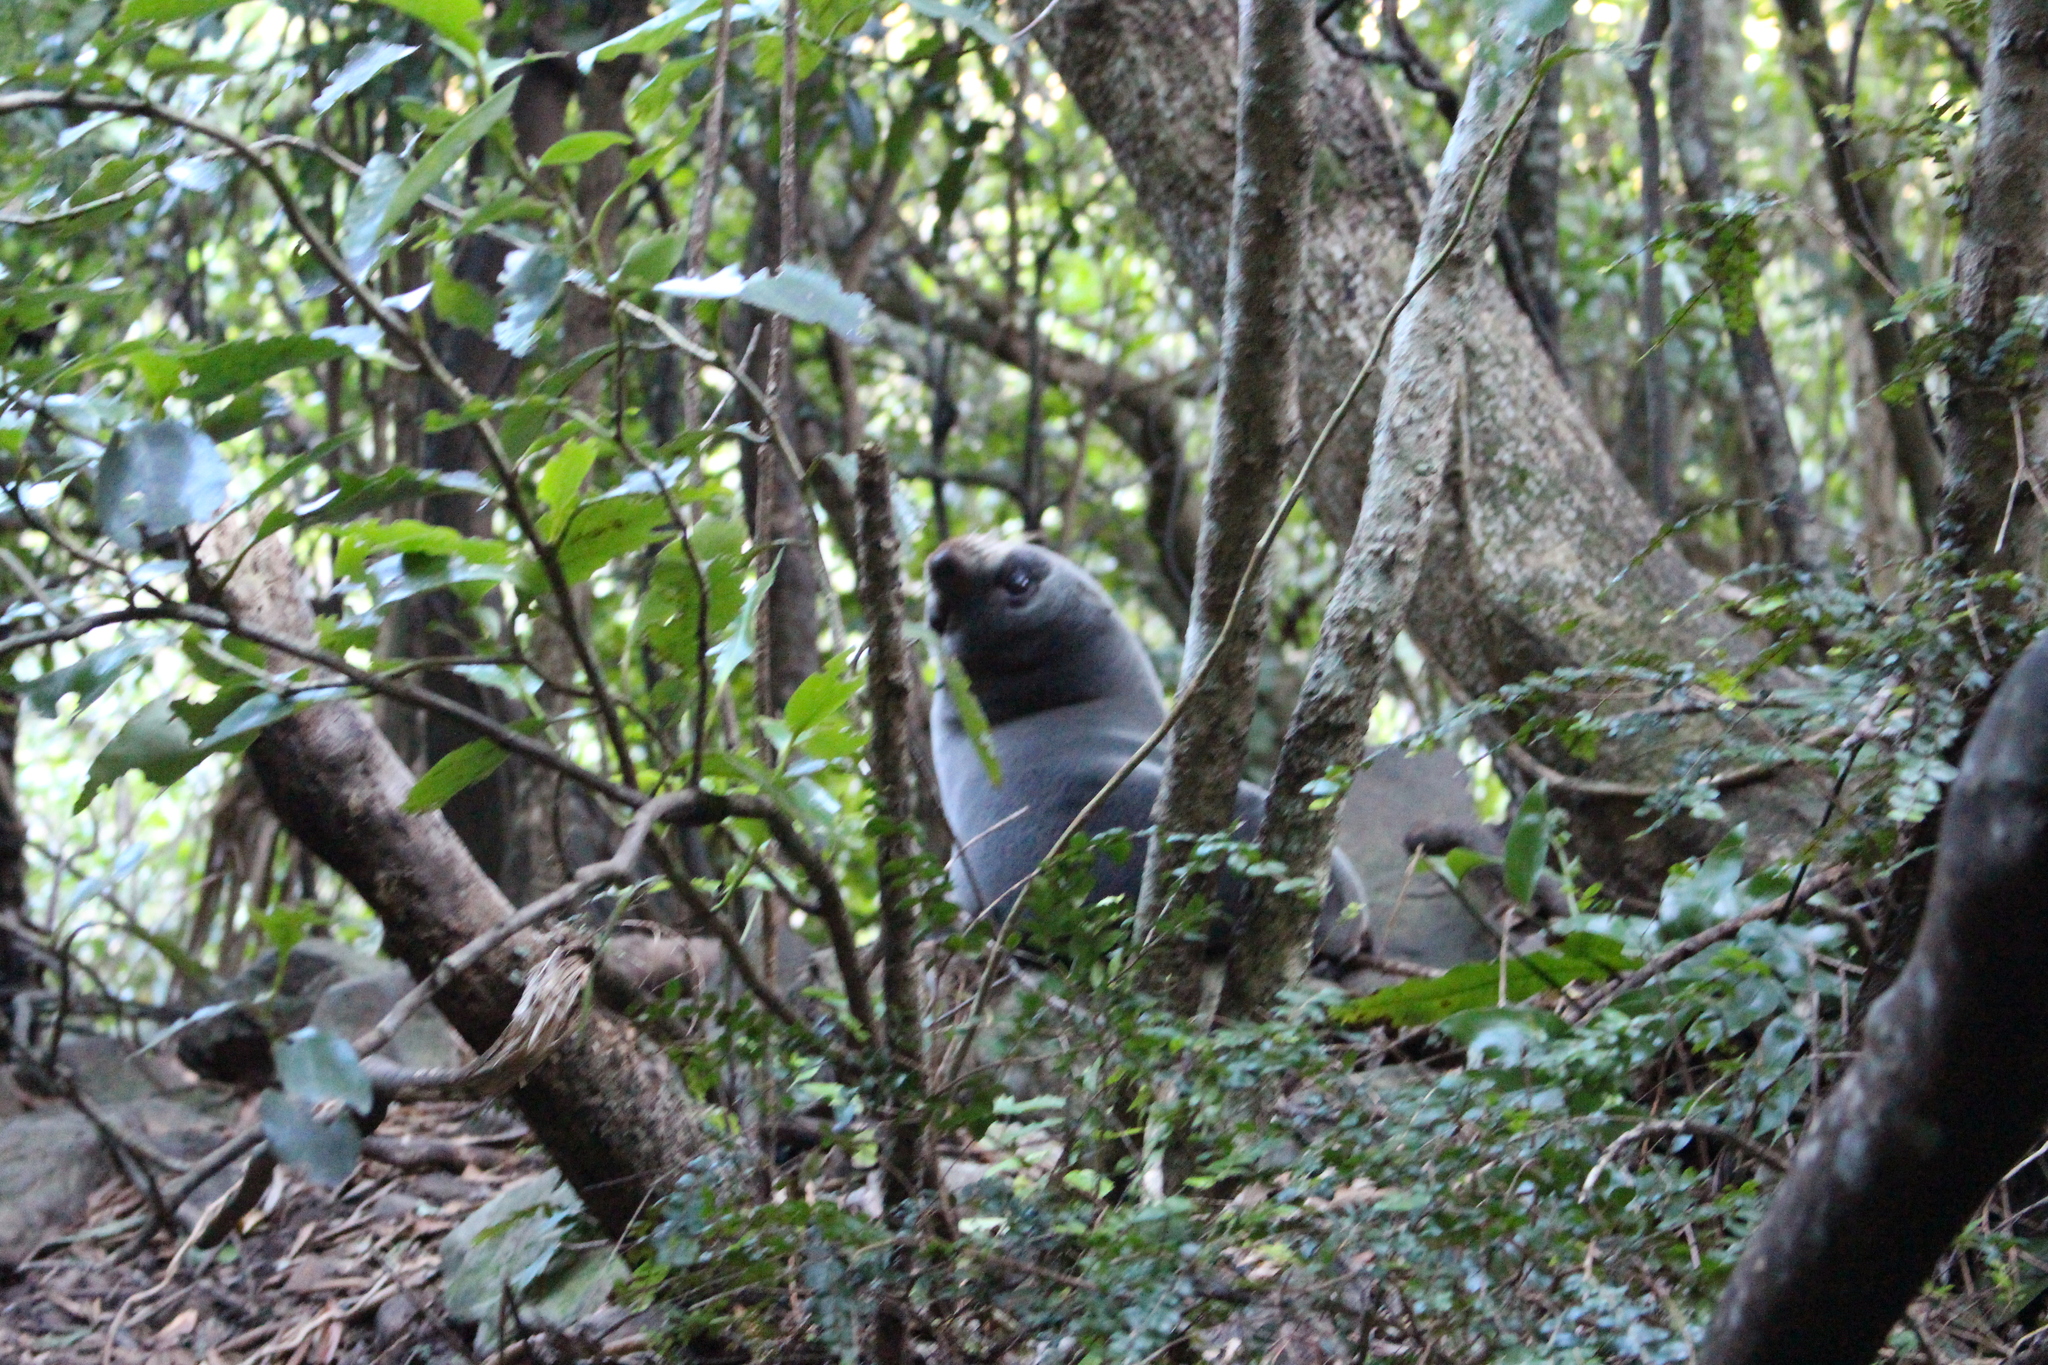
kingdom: Animalia
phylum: Chordata
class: Mammalia
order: Carnivora
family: Otariidae
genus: Arctocephalus
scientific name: Arctocephalus forsteri
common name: New zealand fur seal
